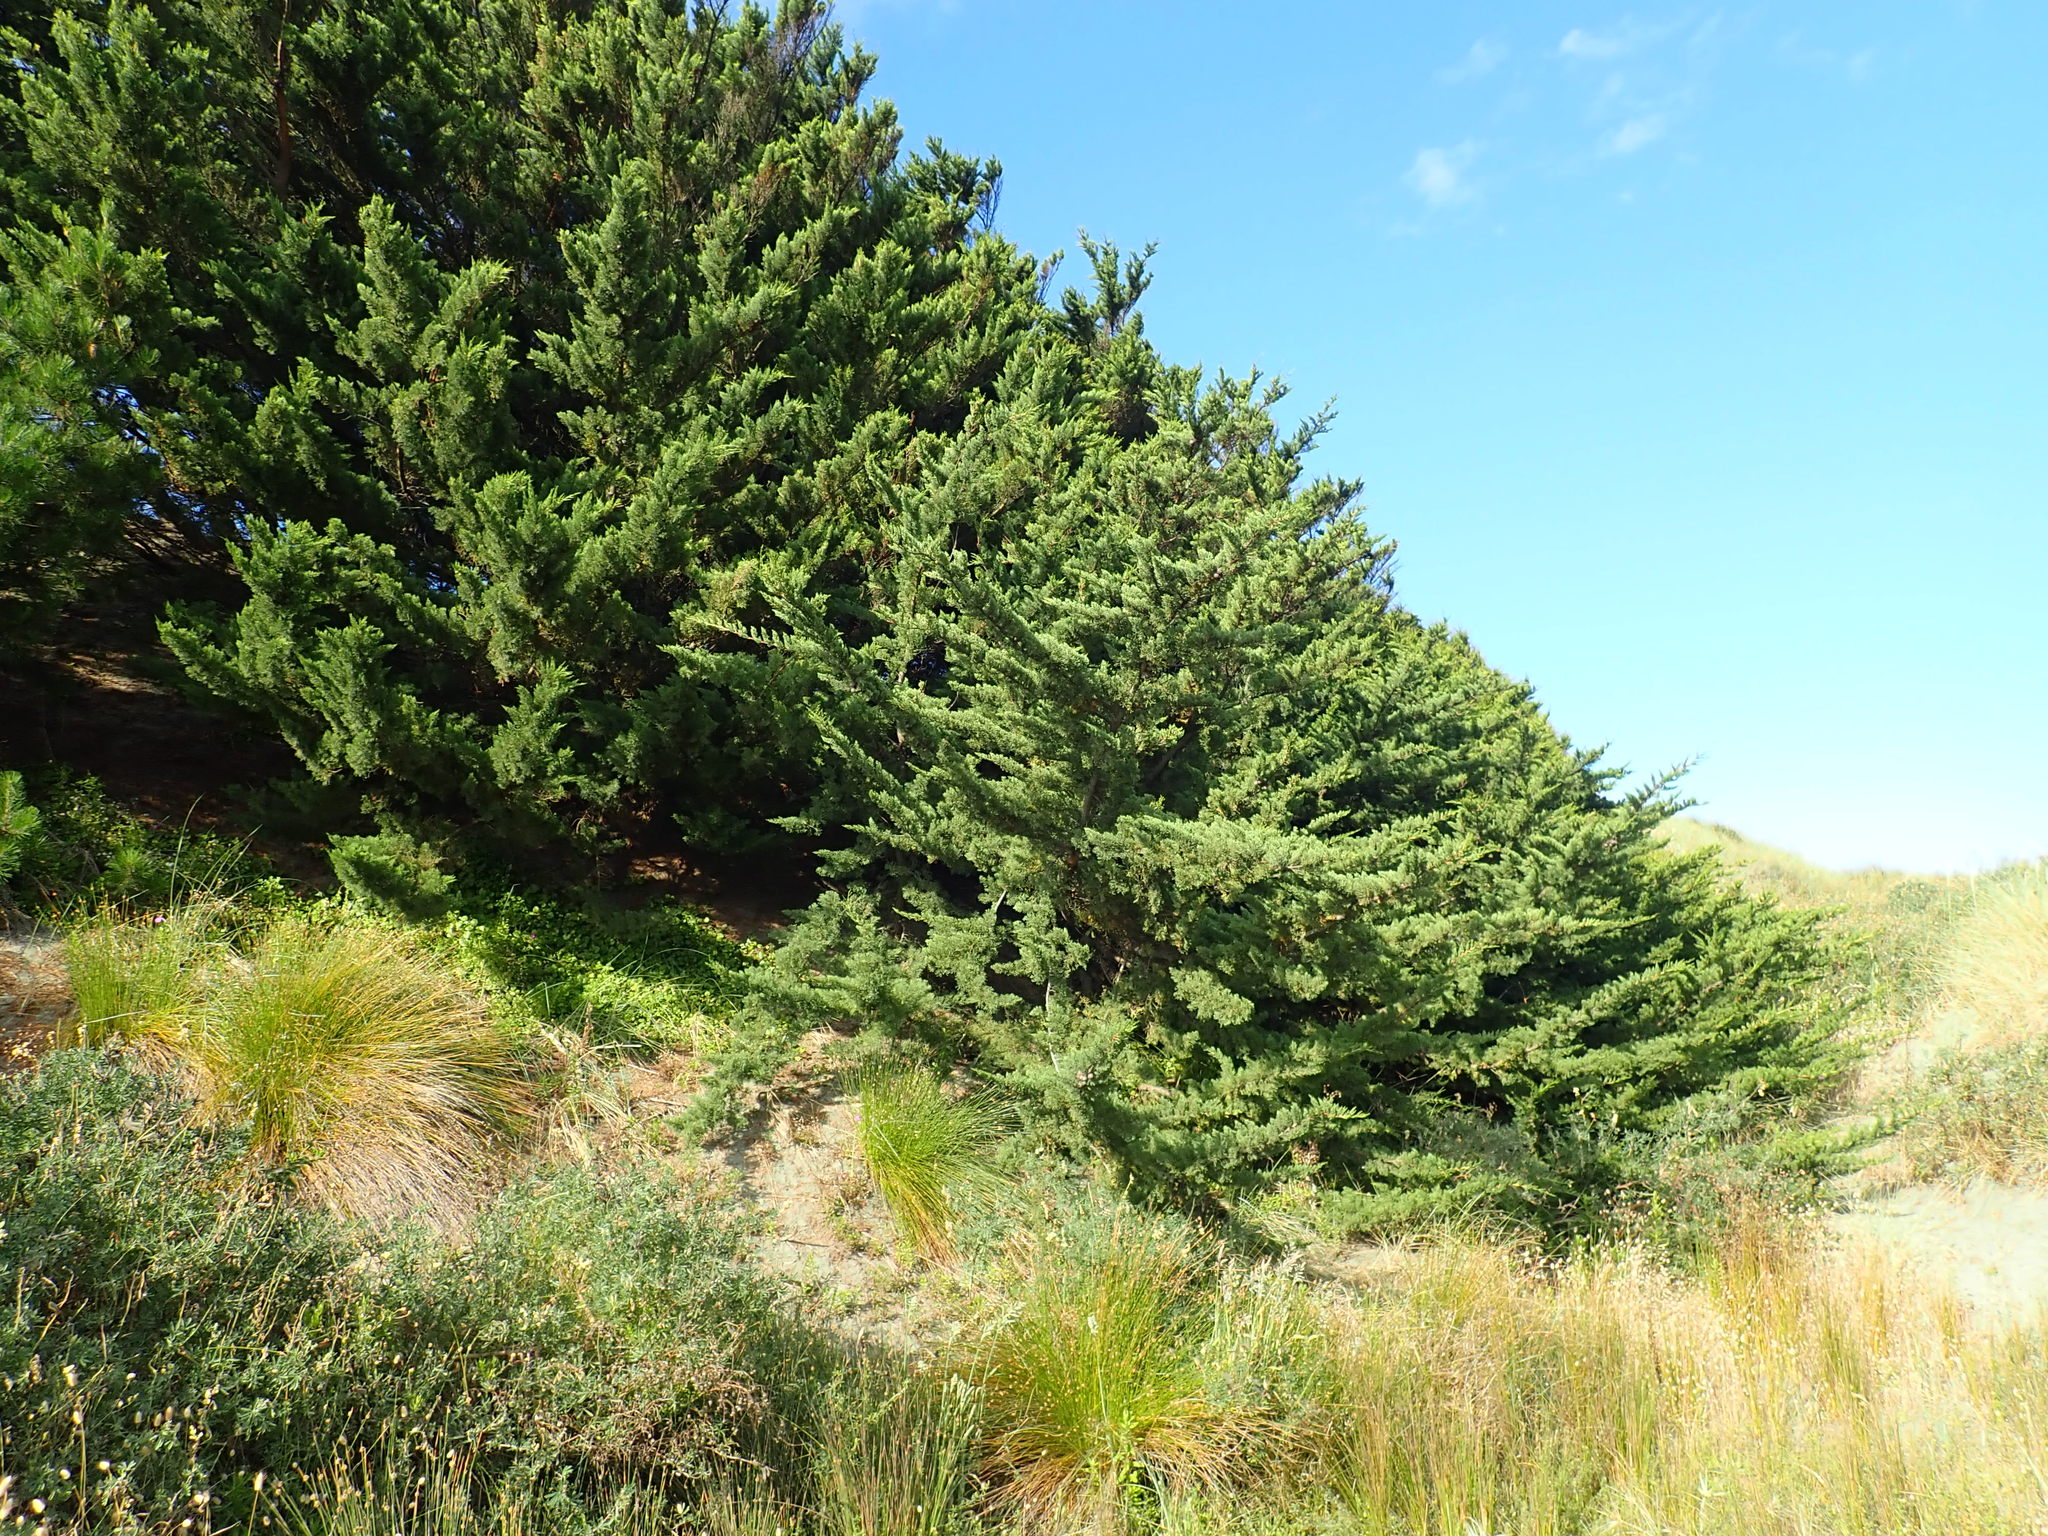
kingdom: Plantae
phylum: Tracheophyta
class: Magnoliopsida
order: Caryophyllales
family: Aizoaceae
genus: Tetragonia
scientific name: Tetragonia implexicoma
